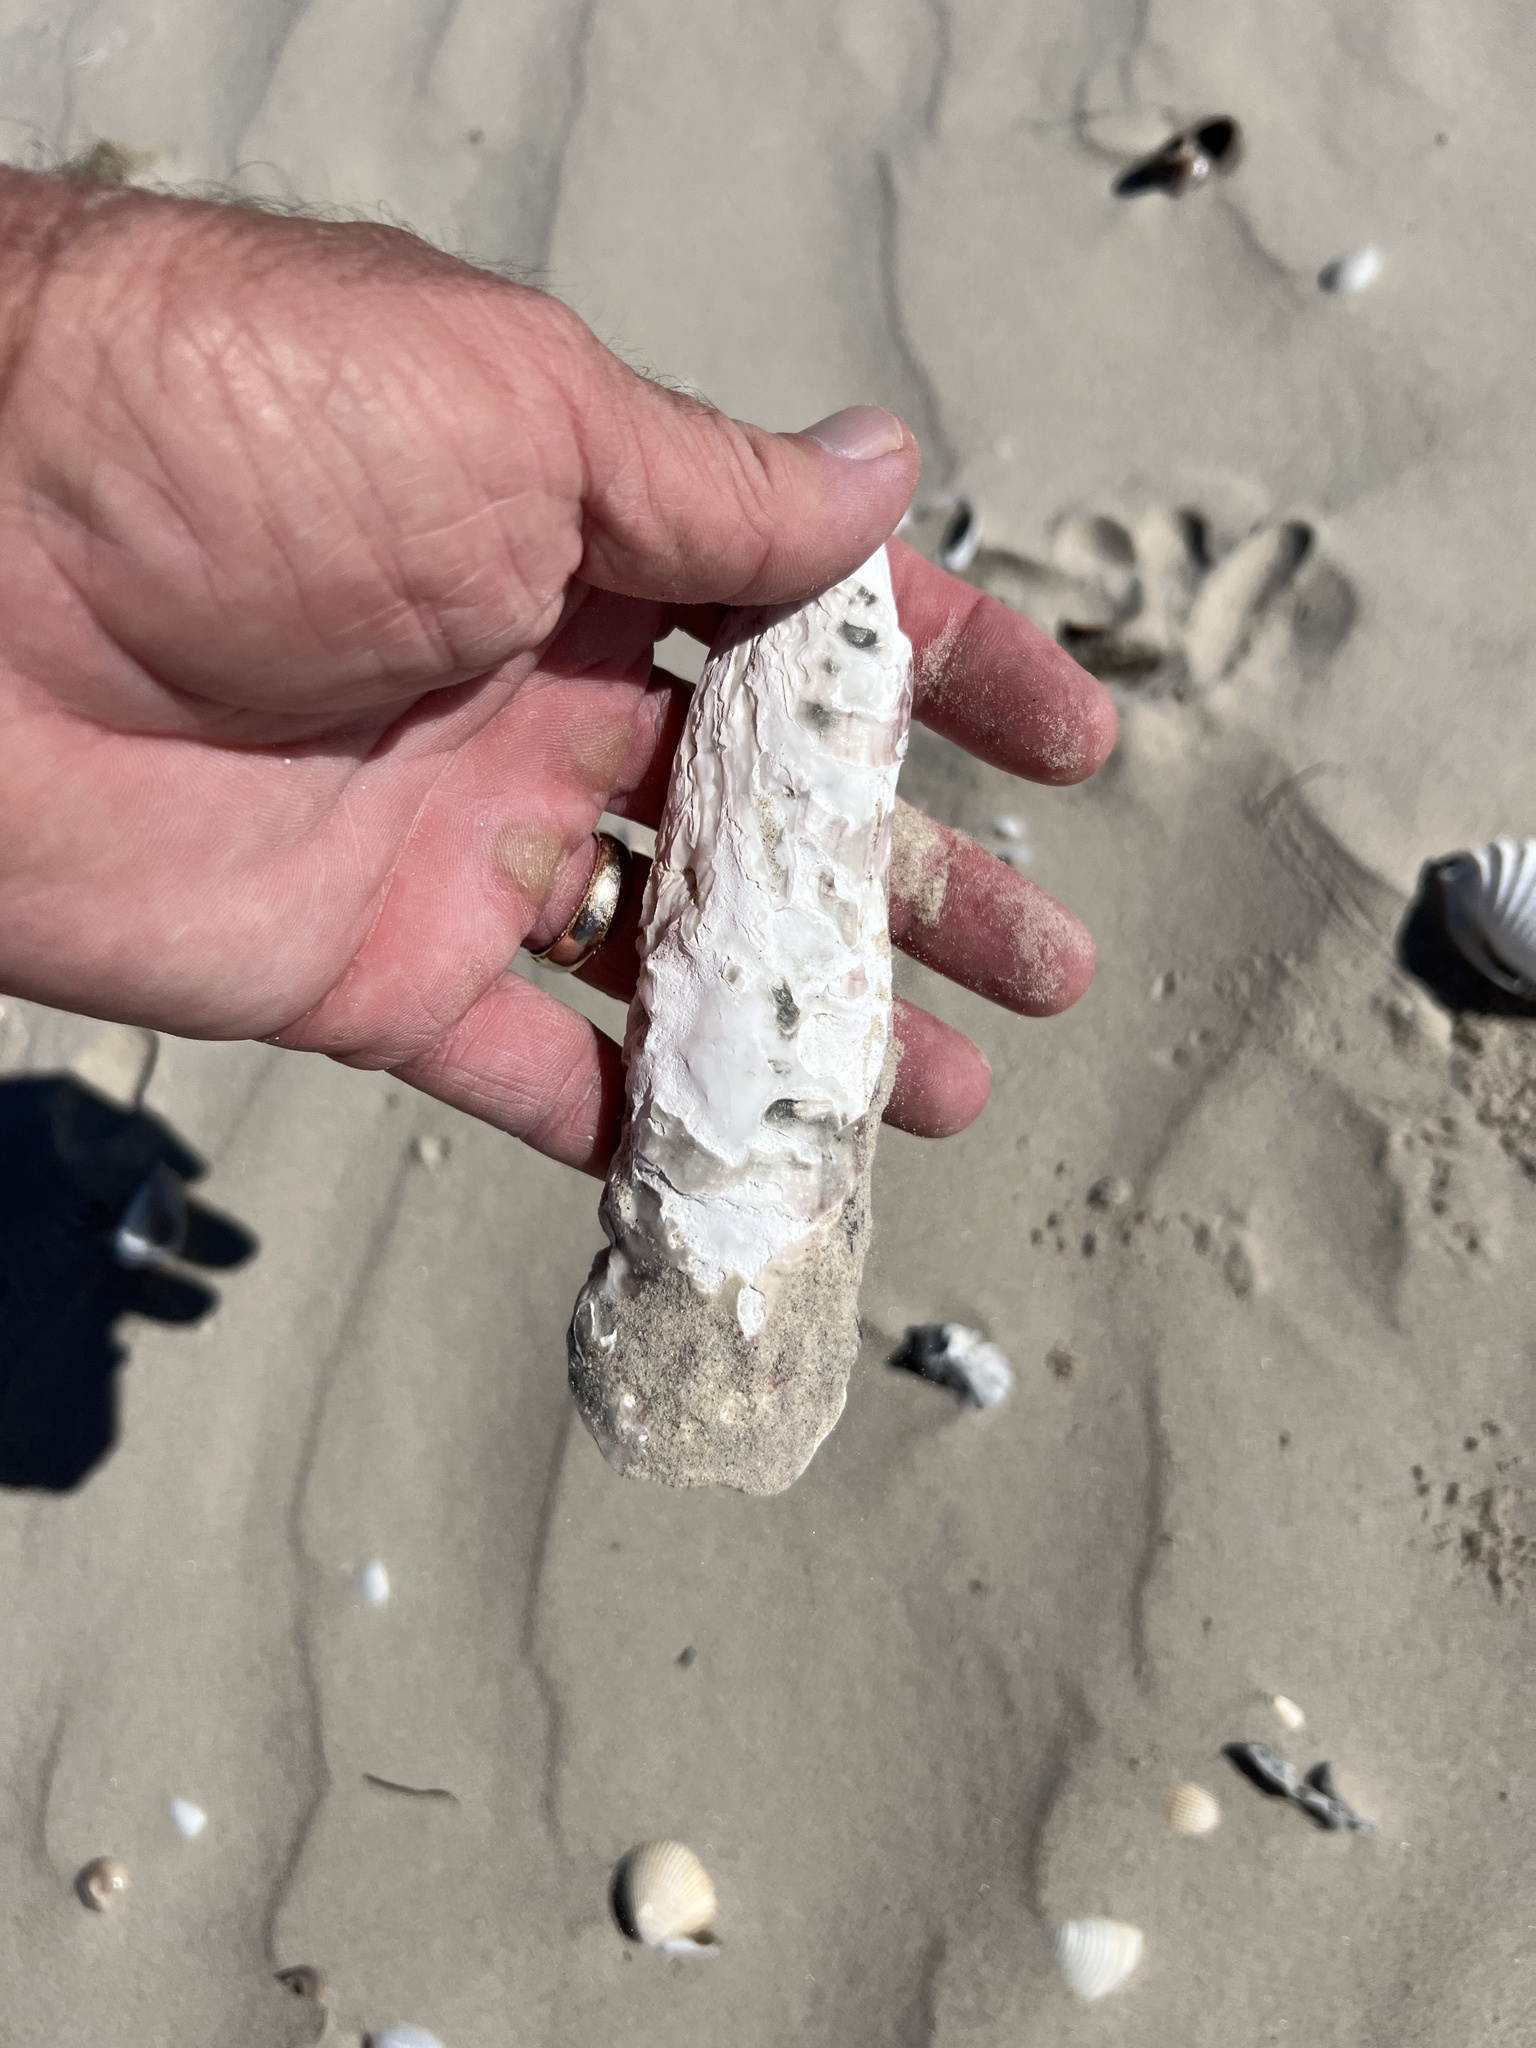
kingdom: Animalia
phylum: Mollusca
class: Bivalvia
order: Ostreida
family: Ostreidae
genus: Crassostrea
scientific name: Crassostrea virginica
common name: American oyster
